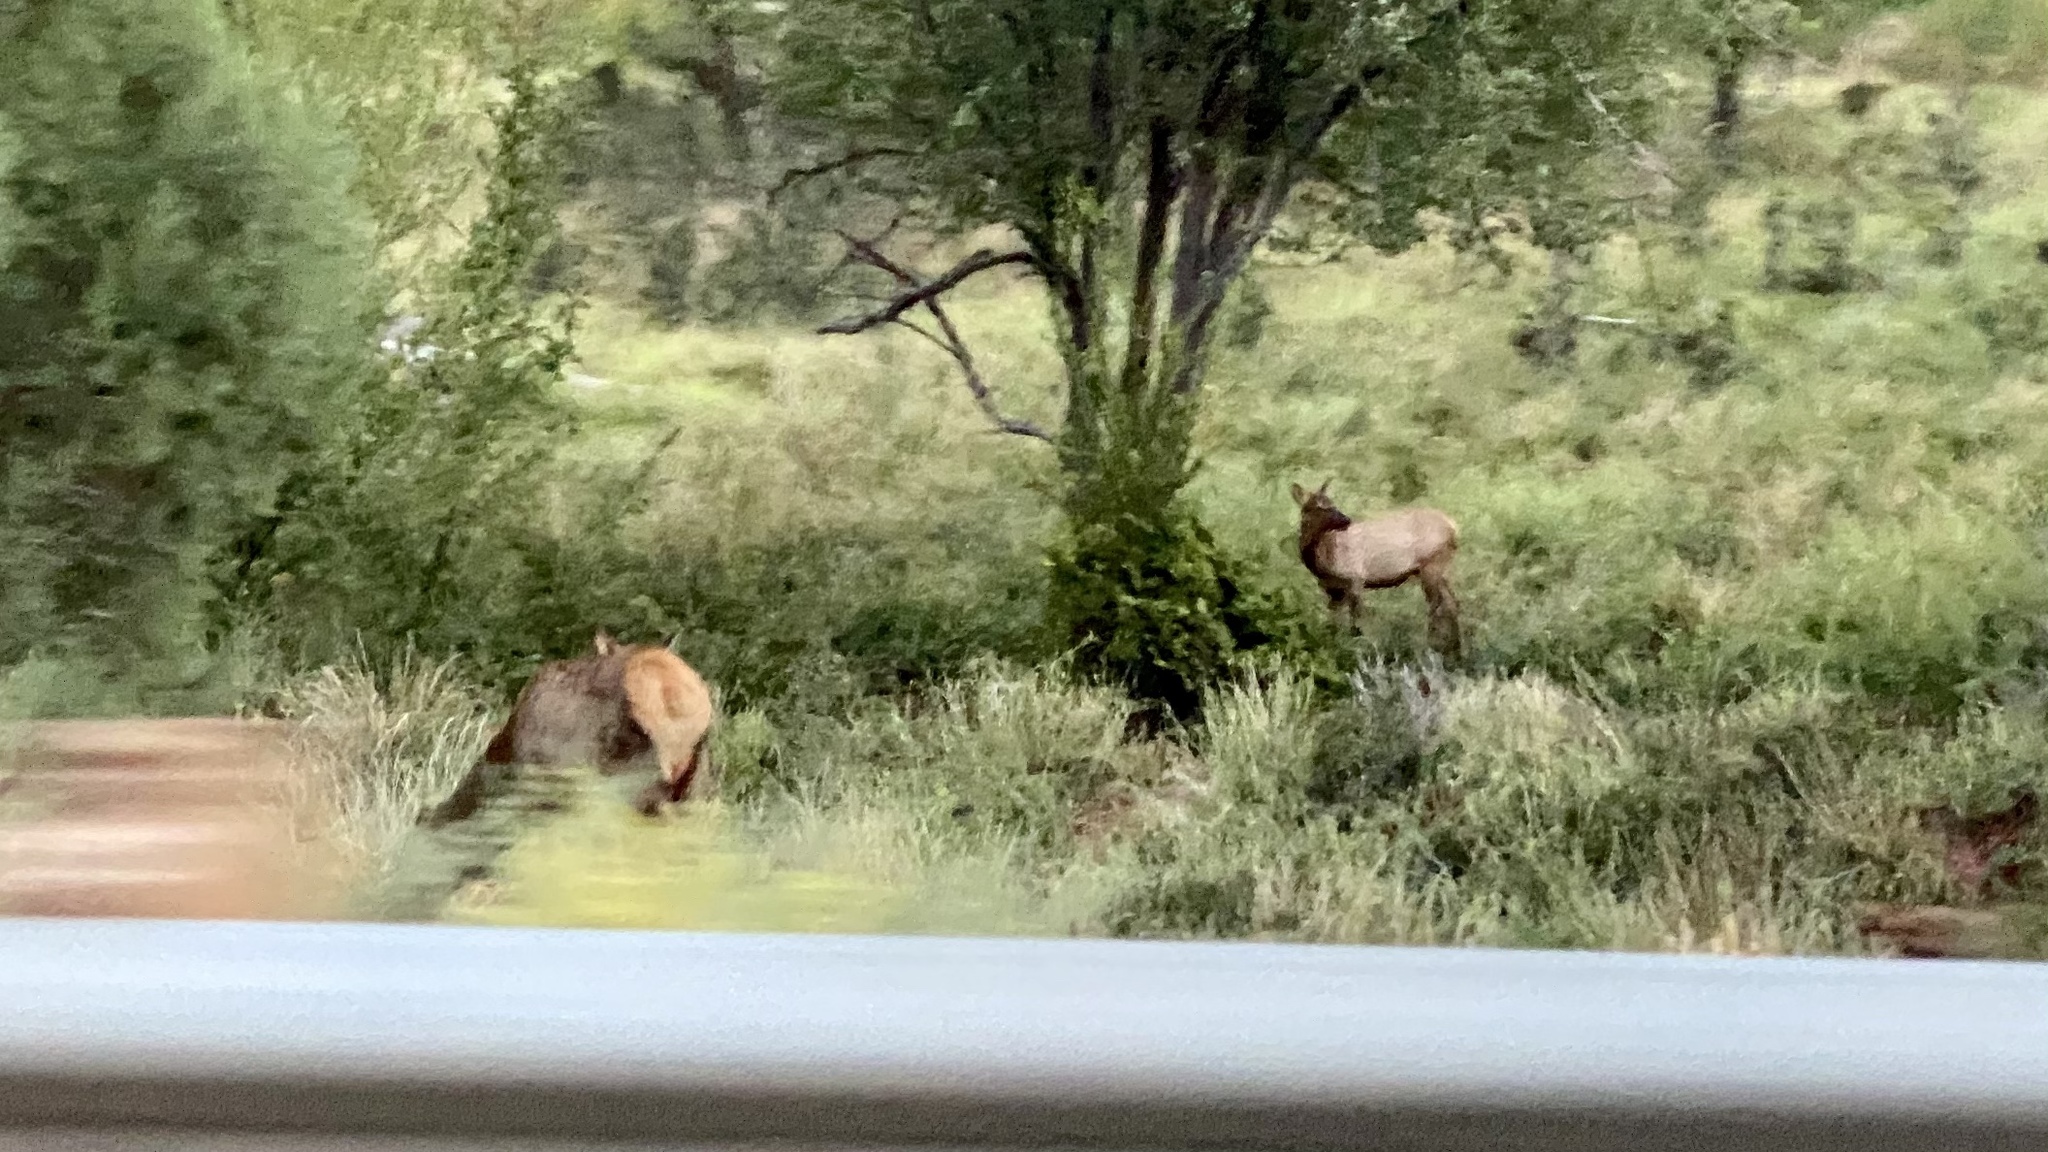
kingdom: Animalia
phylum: Chordata
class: Mammalia
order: Artiodactyla
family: Cervidae
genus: Cervus
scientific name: Cervus elaphus
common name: Red deer
